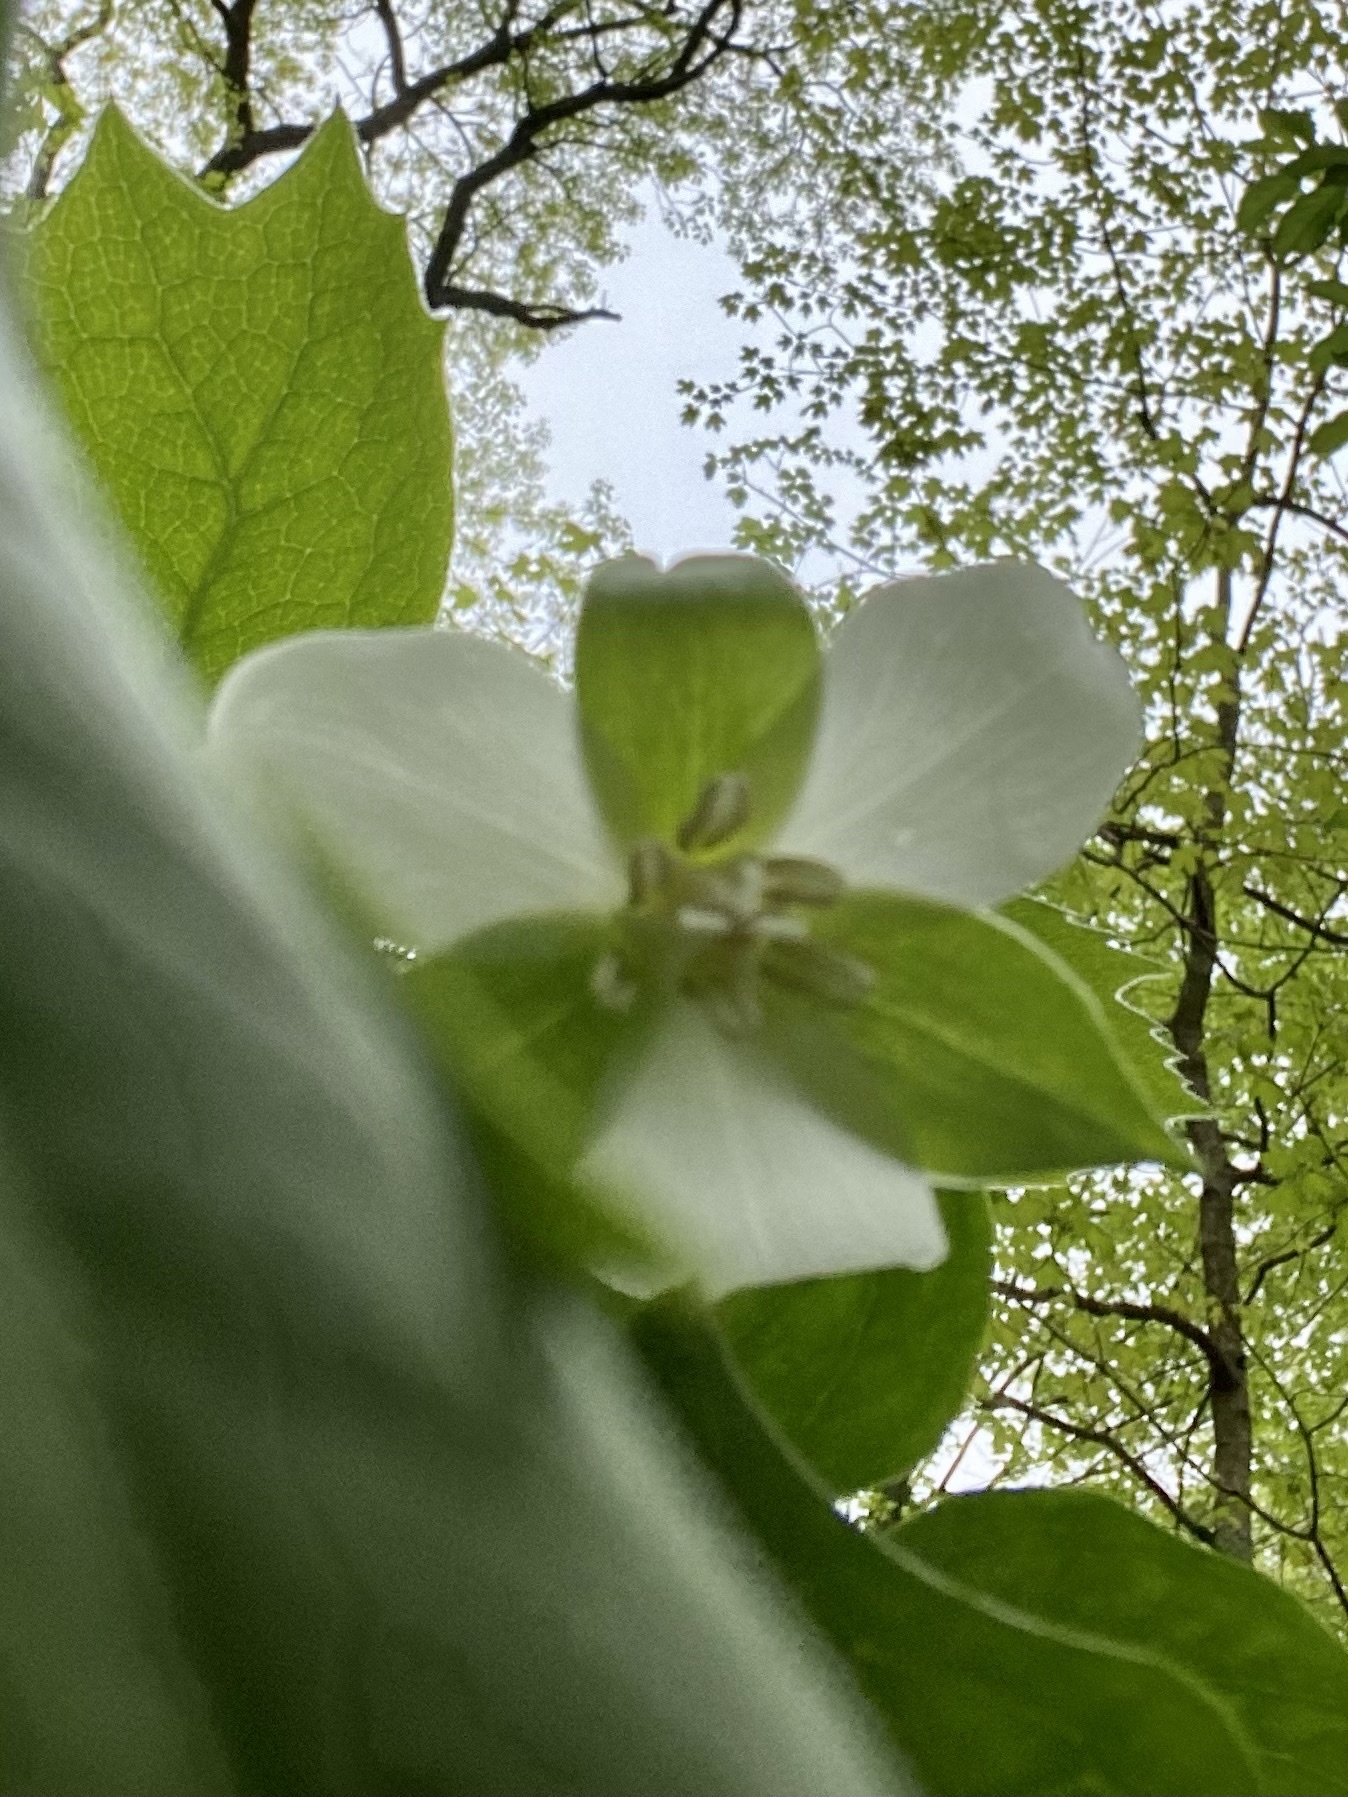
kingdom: Plantae
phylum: Tracheophyta
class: Liliopsida
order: Liliales
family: Melanthiaceae
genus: Trillium
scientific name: Trillium flexipes
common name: Drooping trillium
